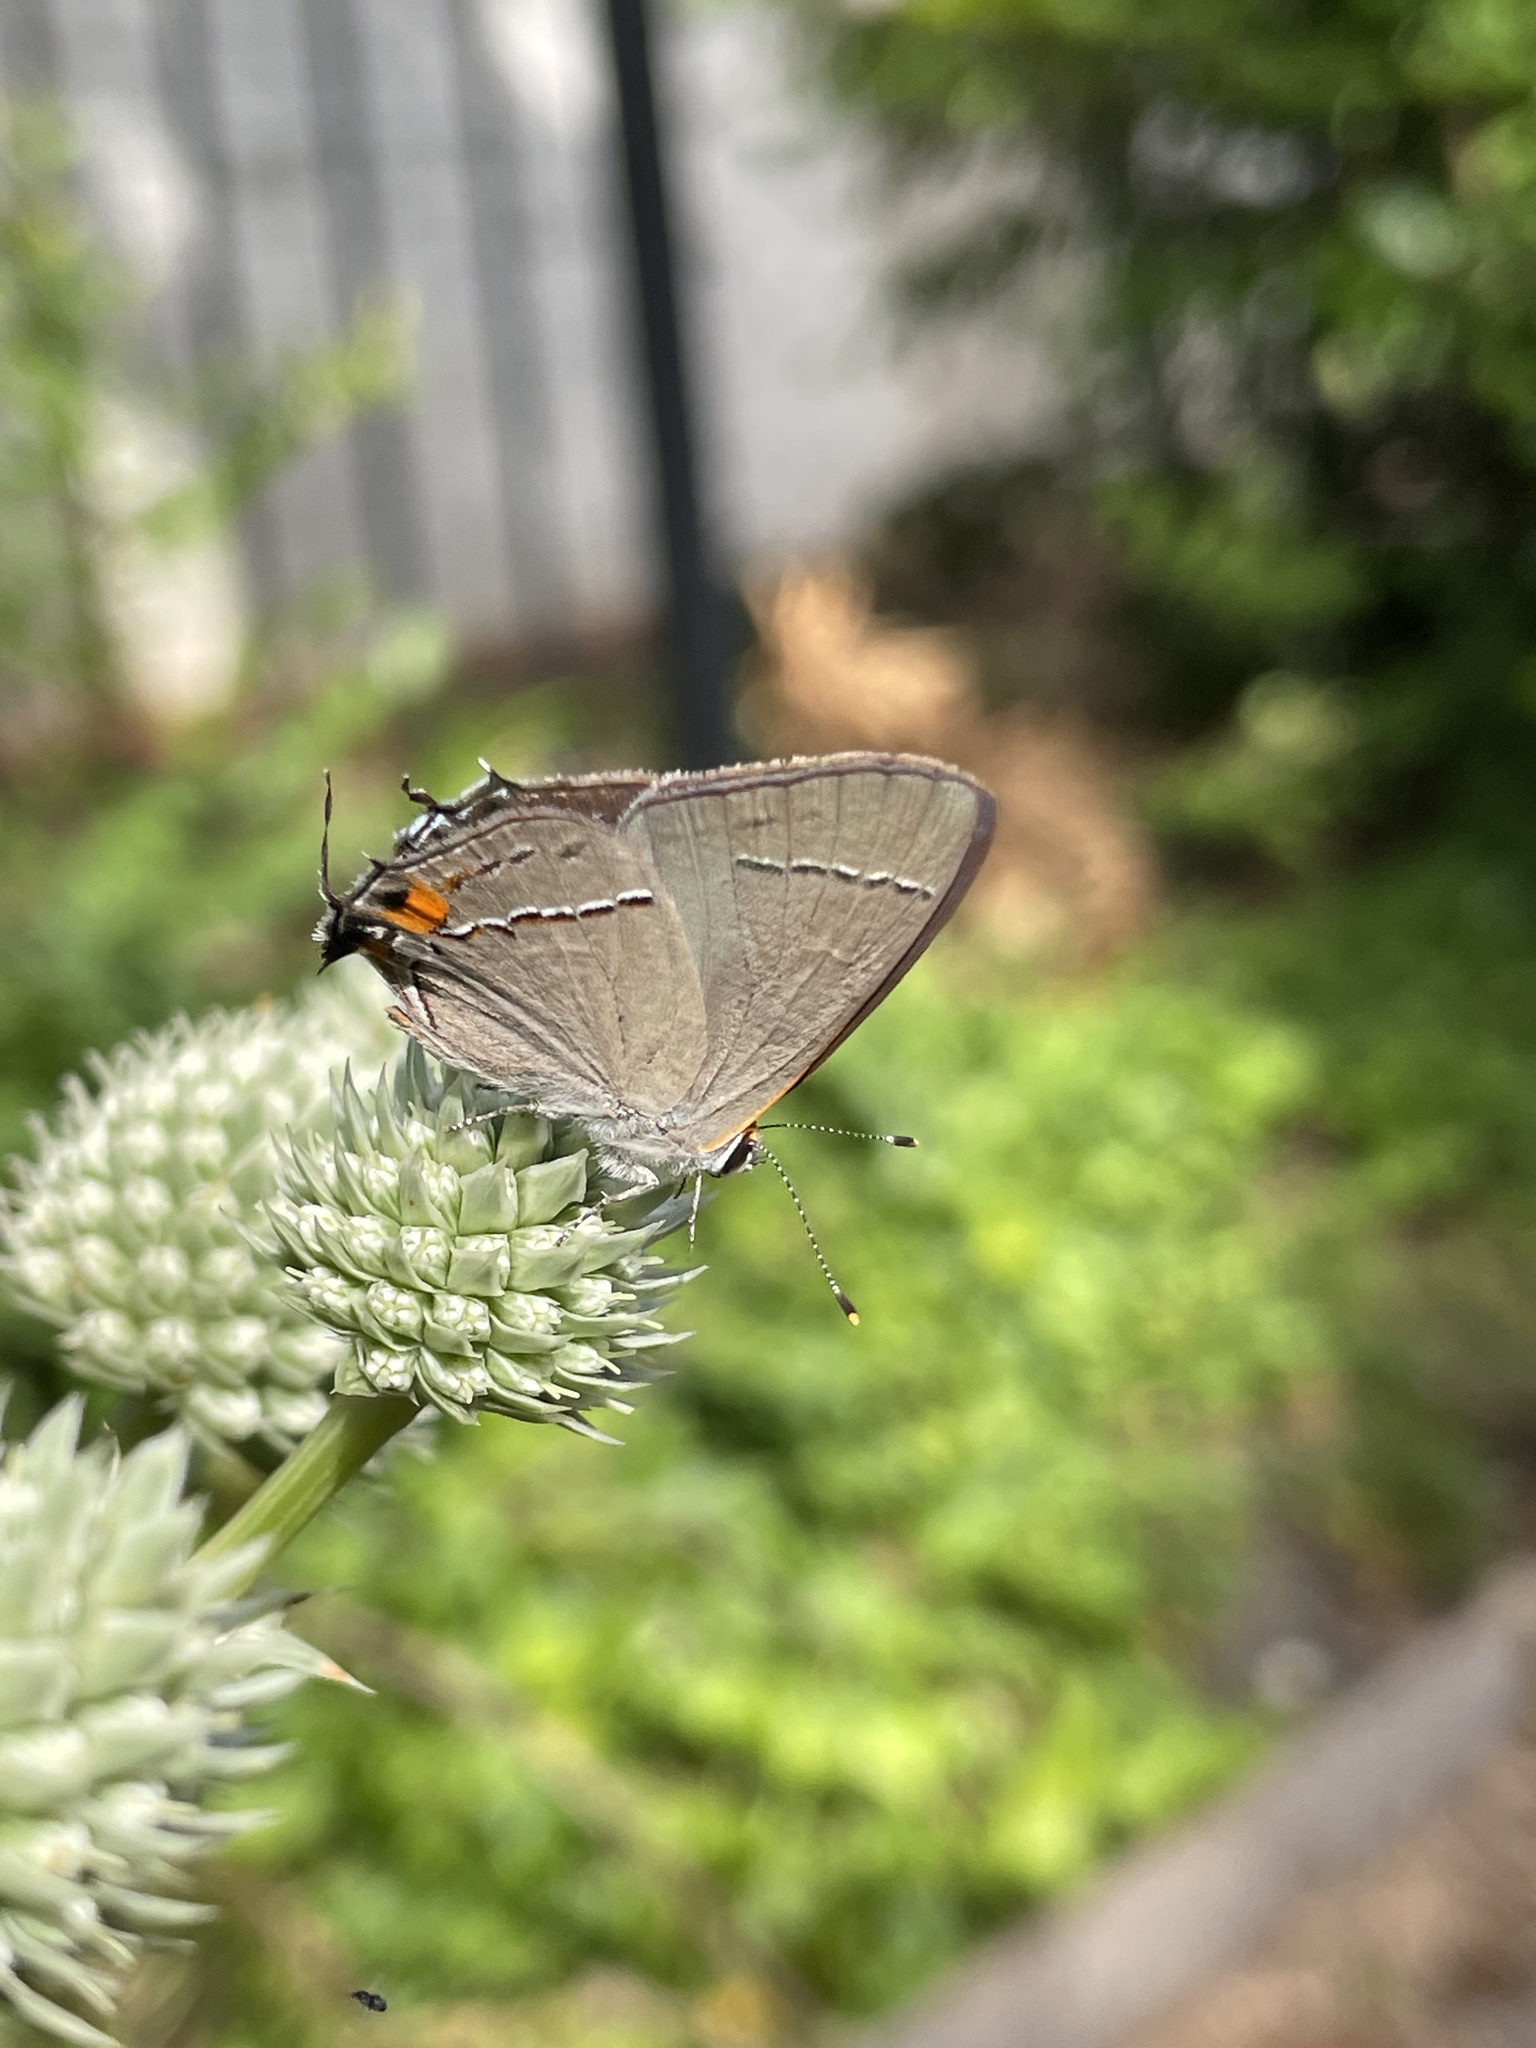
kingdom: Animalia
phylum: Arthropoda
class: Insecta
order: Lepidoptera
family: Lycaenidae
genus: Strymon
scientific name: Strymon melinus
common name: Gray hairstreak
